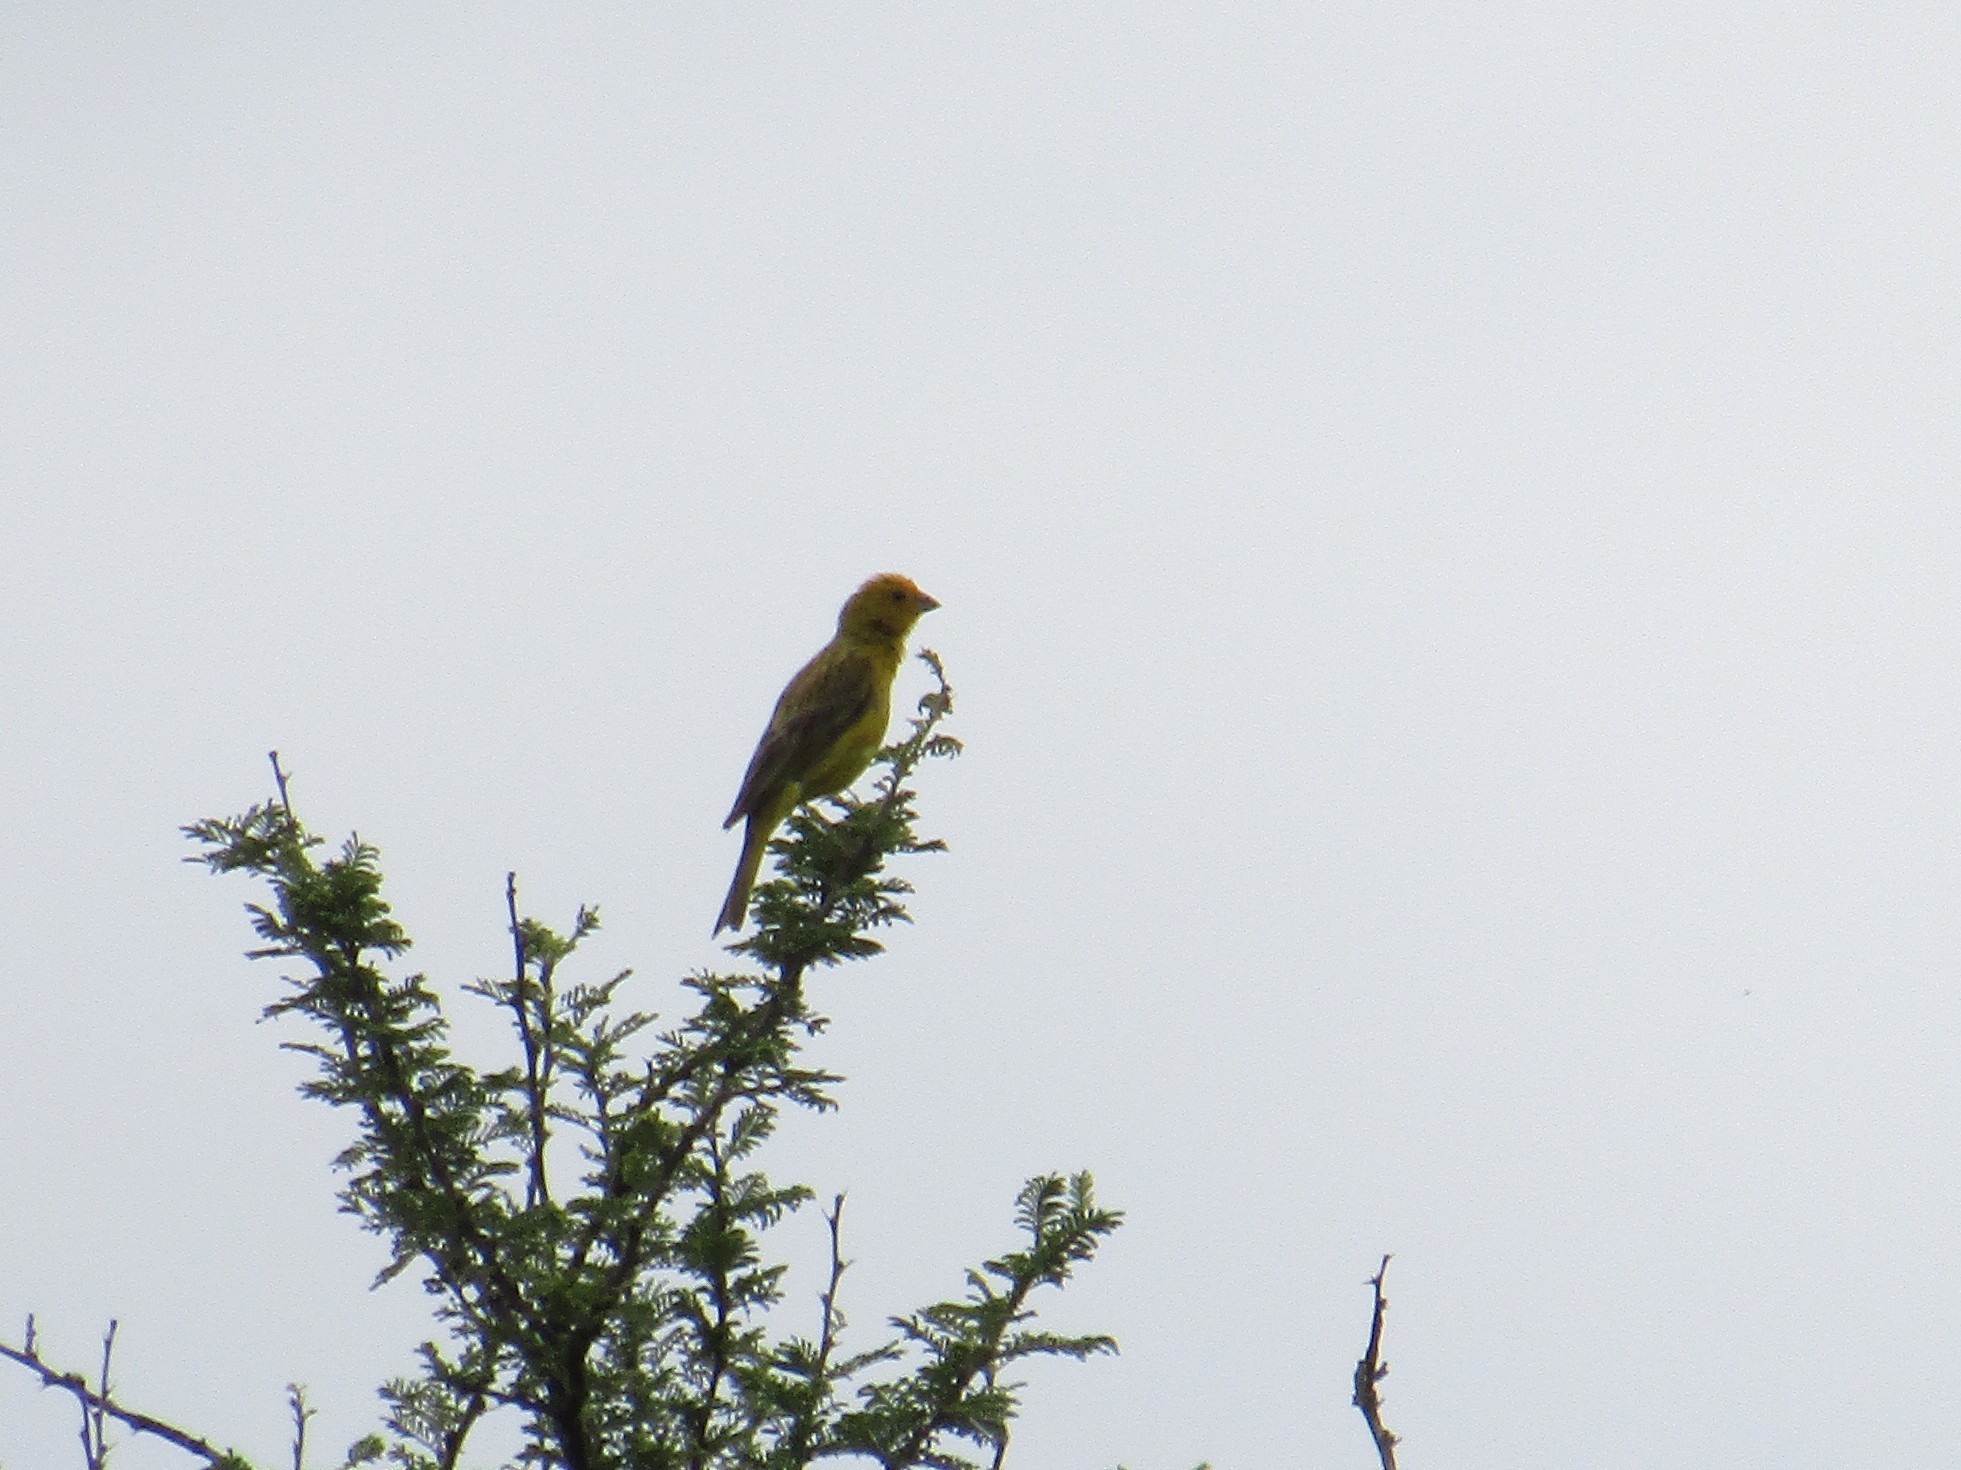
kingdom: Animalia
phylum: Chordata
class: Aves
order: Passeriformes
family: Thraupidae
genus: Sicalis
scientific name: Sicalis flaveola
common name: Saffron finch
